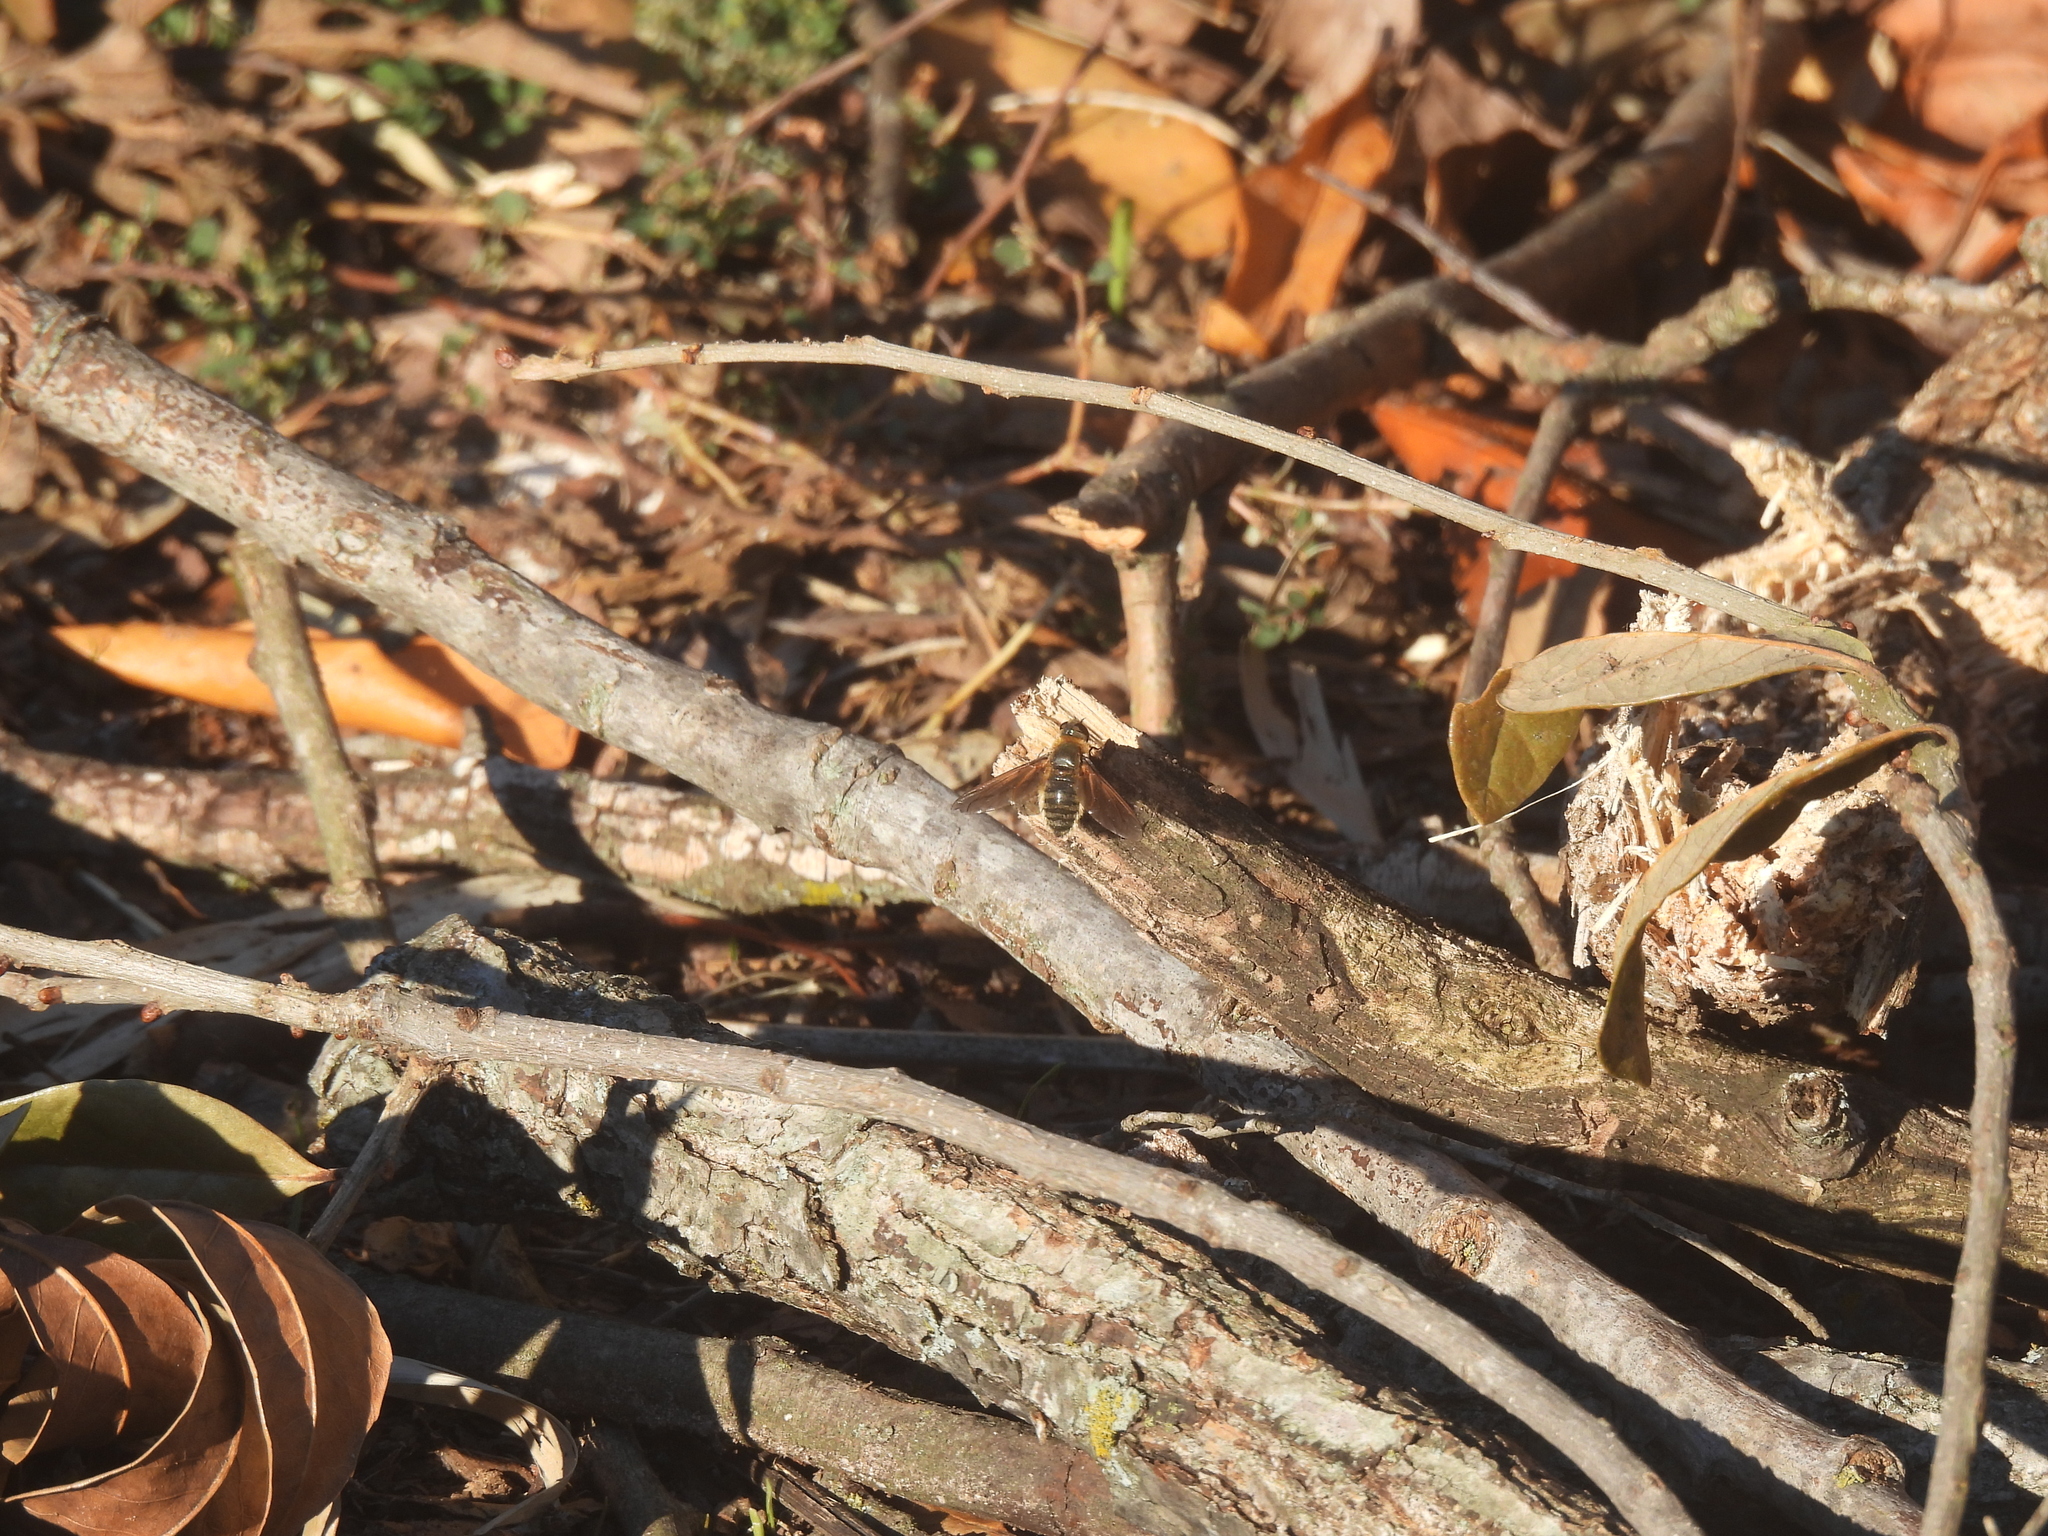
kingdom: Animalia
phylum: Arthropoda
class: Insecta
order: Diptera
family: Bombyliidae
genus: Poecilanthrax
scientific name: Poecilanthrax lucifer
